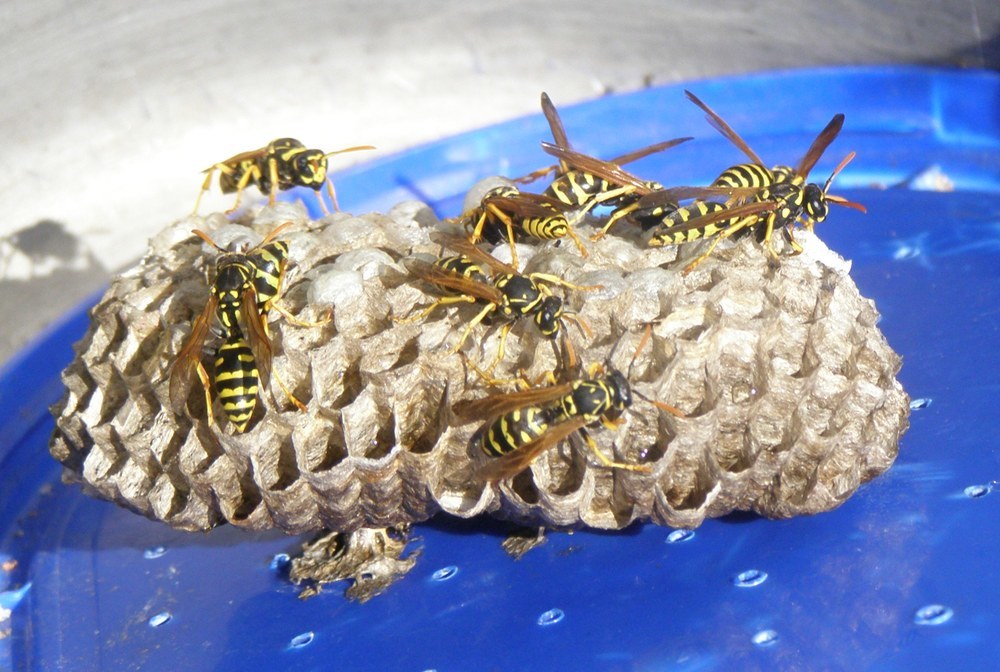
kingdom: Animalia
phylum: Arthropoda
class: Insecta
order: Hymenoptera
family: Eumenidae
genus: Polistes
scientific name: Polistes dominula
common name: Paper wasp
